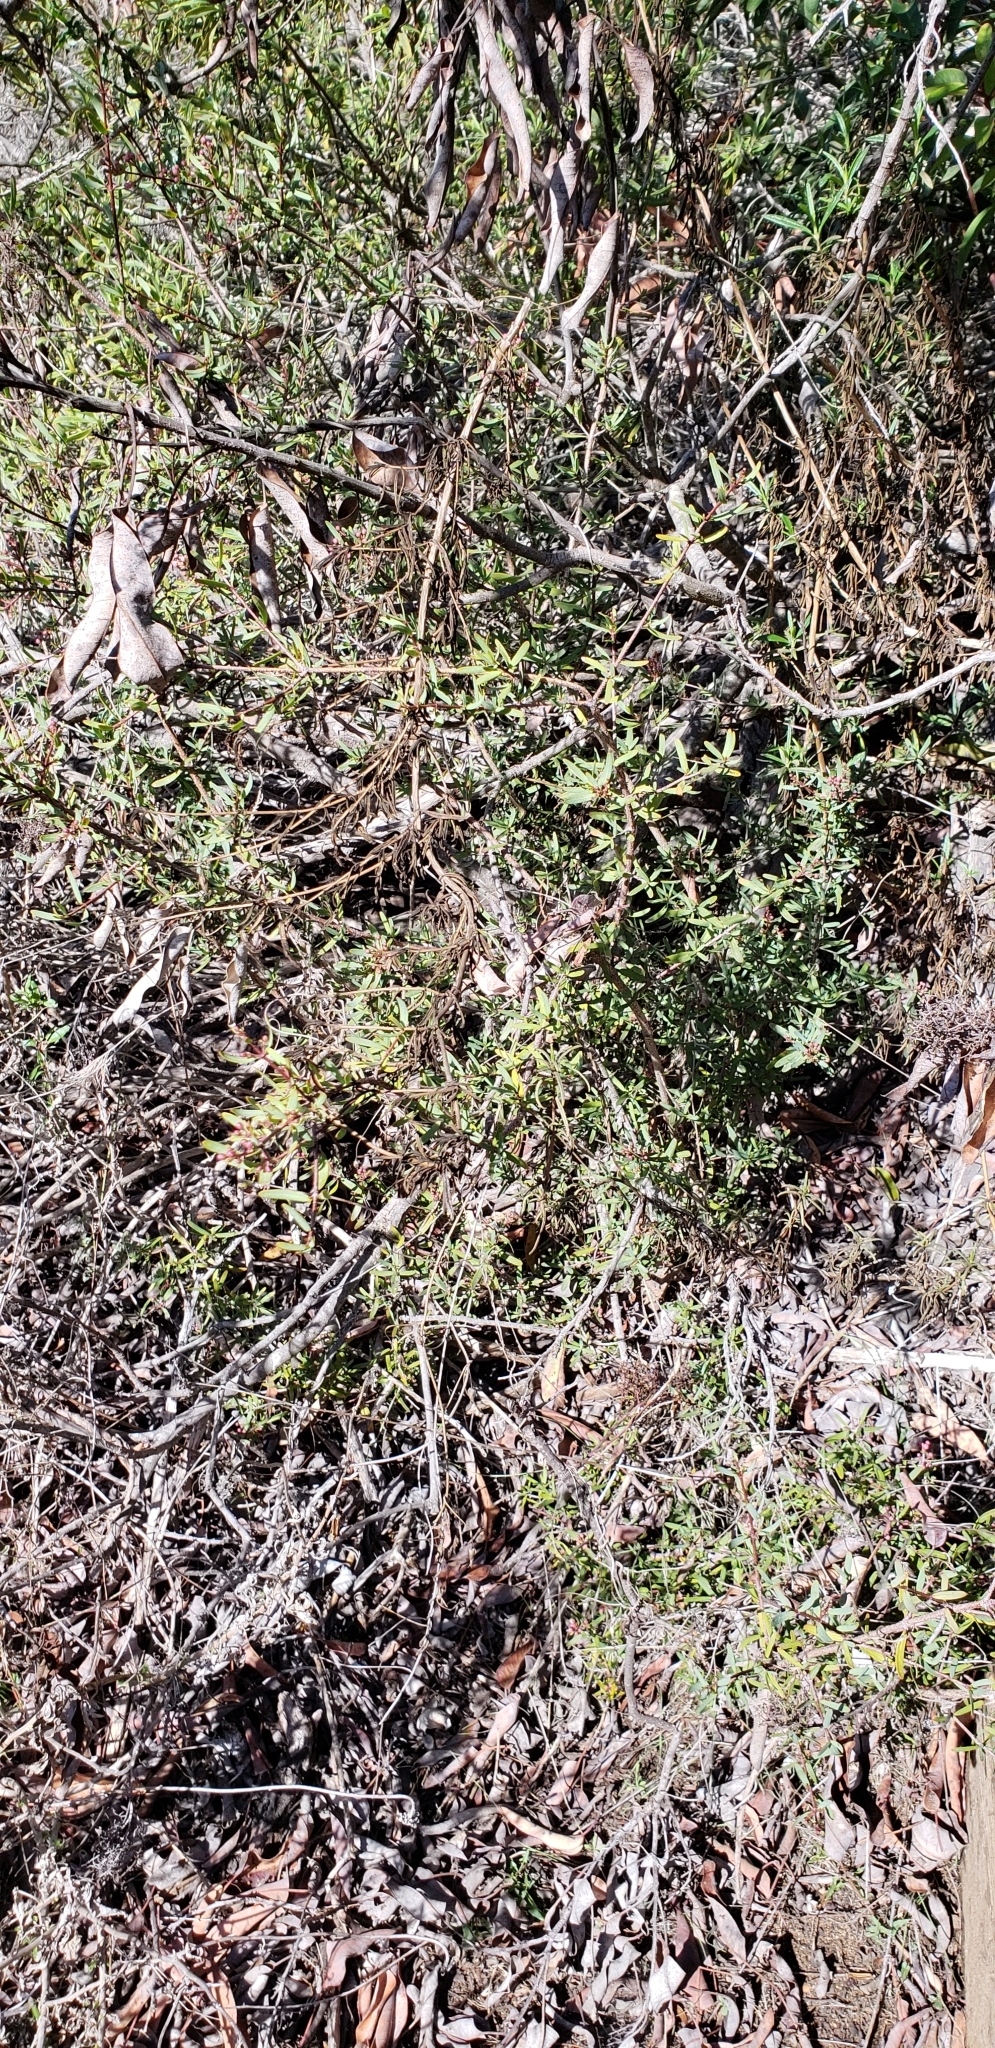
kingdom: Plantae
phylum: Tracheophyta
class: Magnoliopsida
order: Sapindales
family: Rutaceae
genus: Cneoridium
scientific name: Cneoridium dumosum
